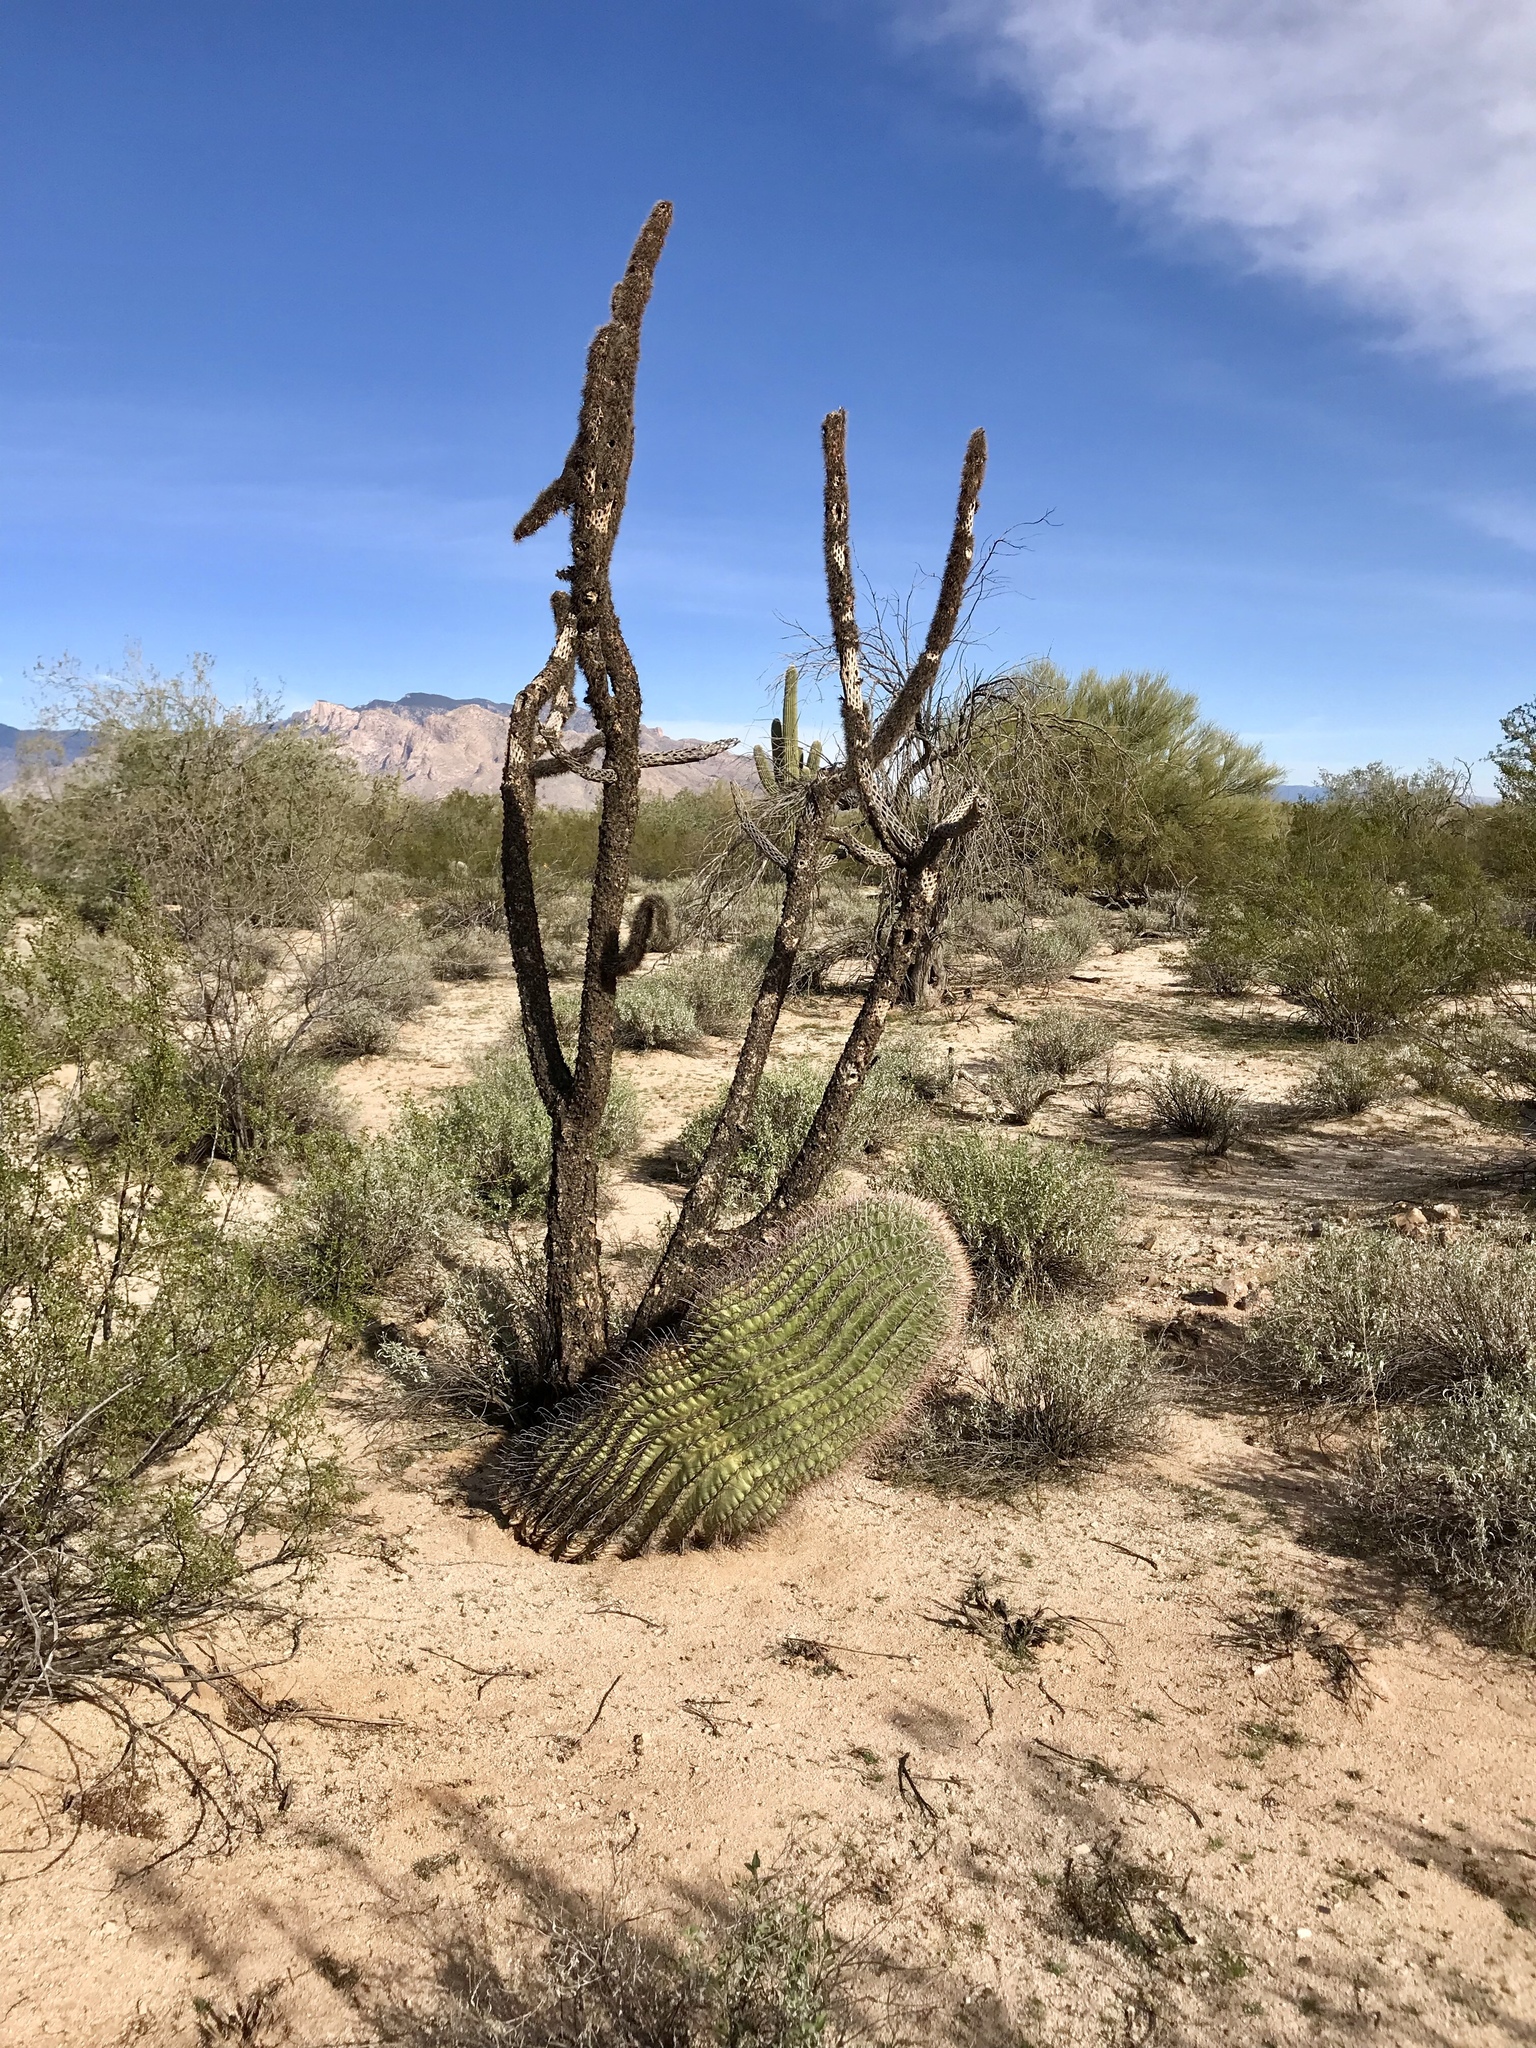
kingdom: Plantae
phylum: Tracheophyta
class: Magnoliopsida
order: Caryophyllales
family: Cactaceae
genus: Ferocactus
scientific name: Ferocactus wislizeni
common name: Candy barrel cactus
